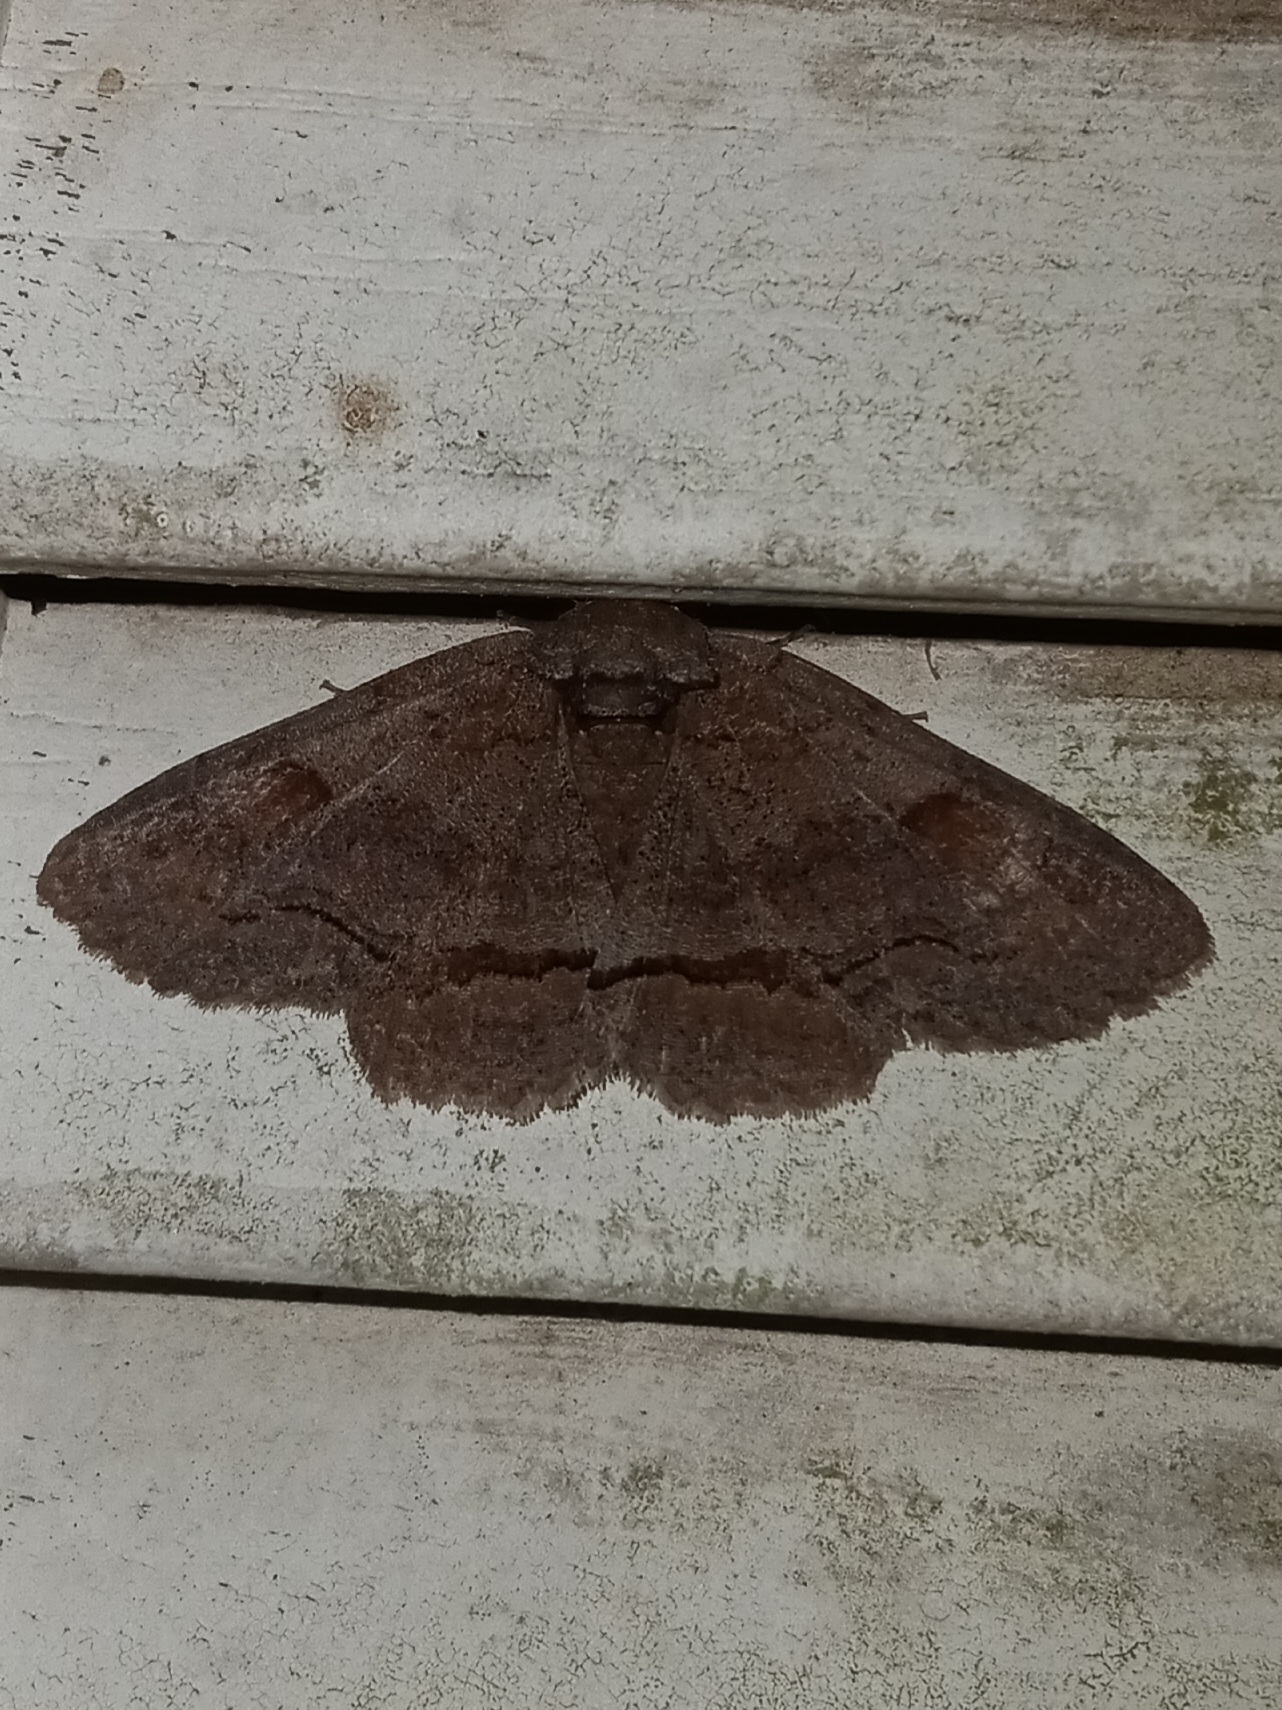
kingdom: Animalia
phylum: Arthropoda
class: Insecta
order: Lepidoptera
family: Erebidae
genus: Zale
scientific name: Zale obliqua
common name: Oblique zale moth
